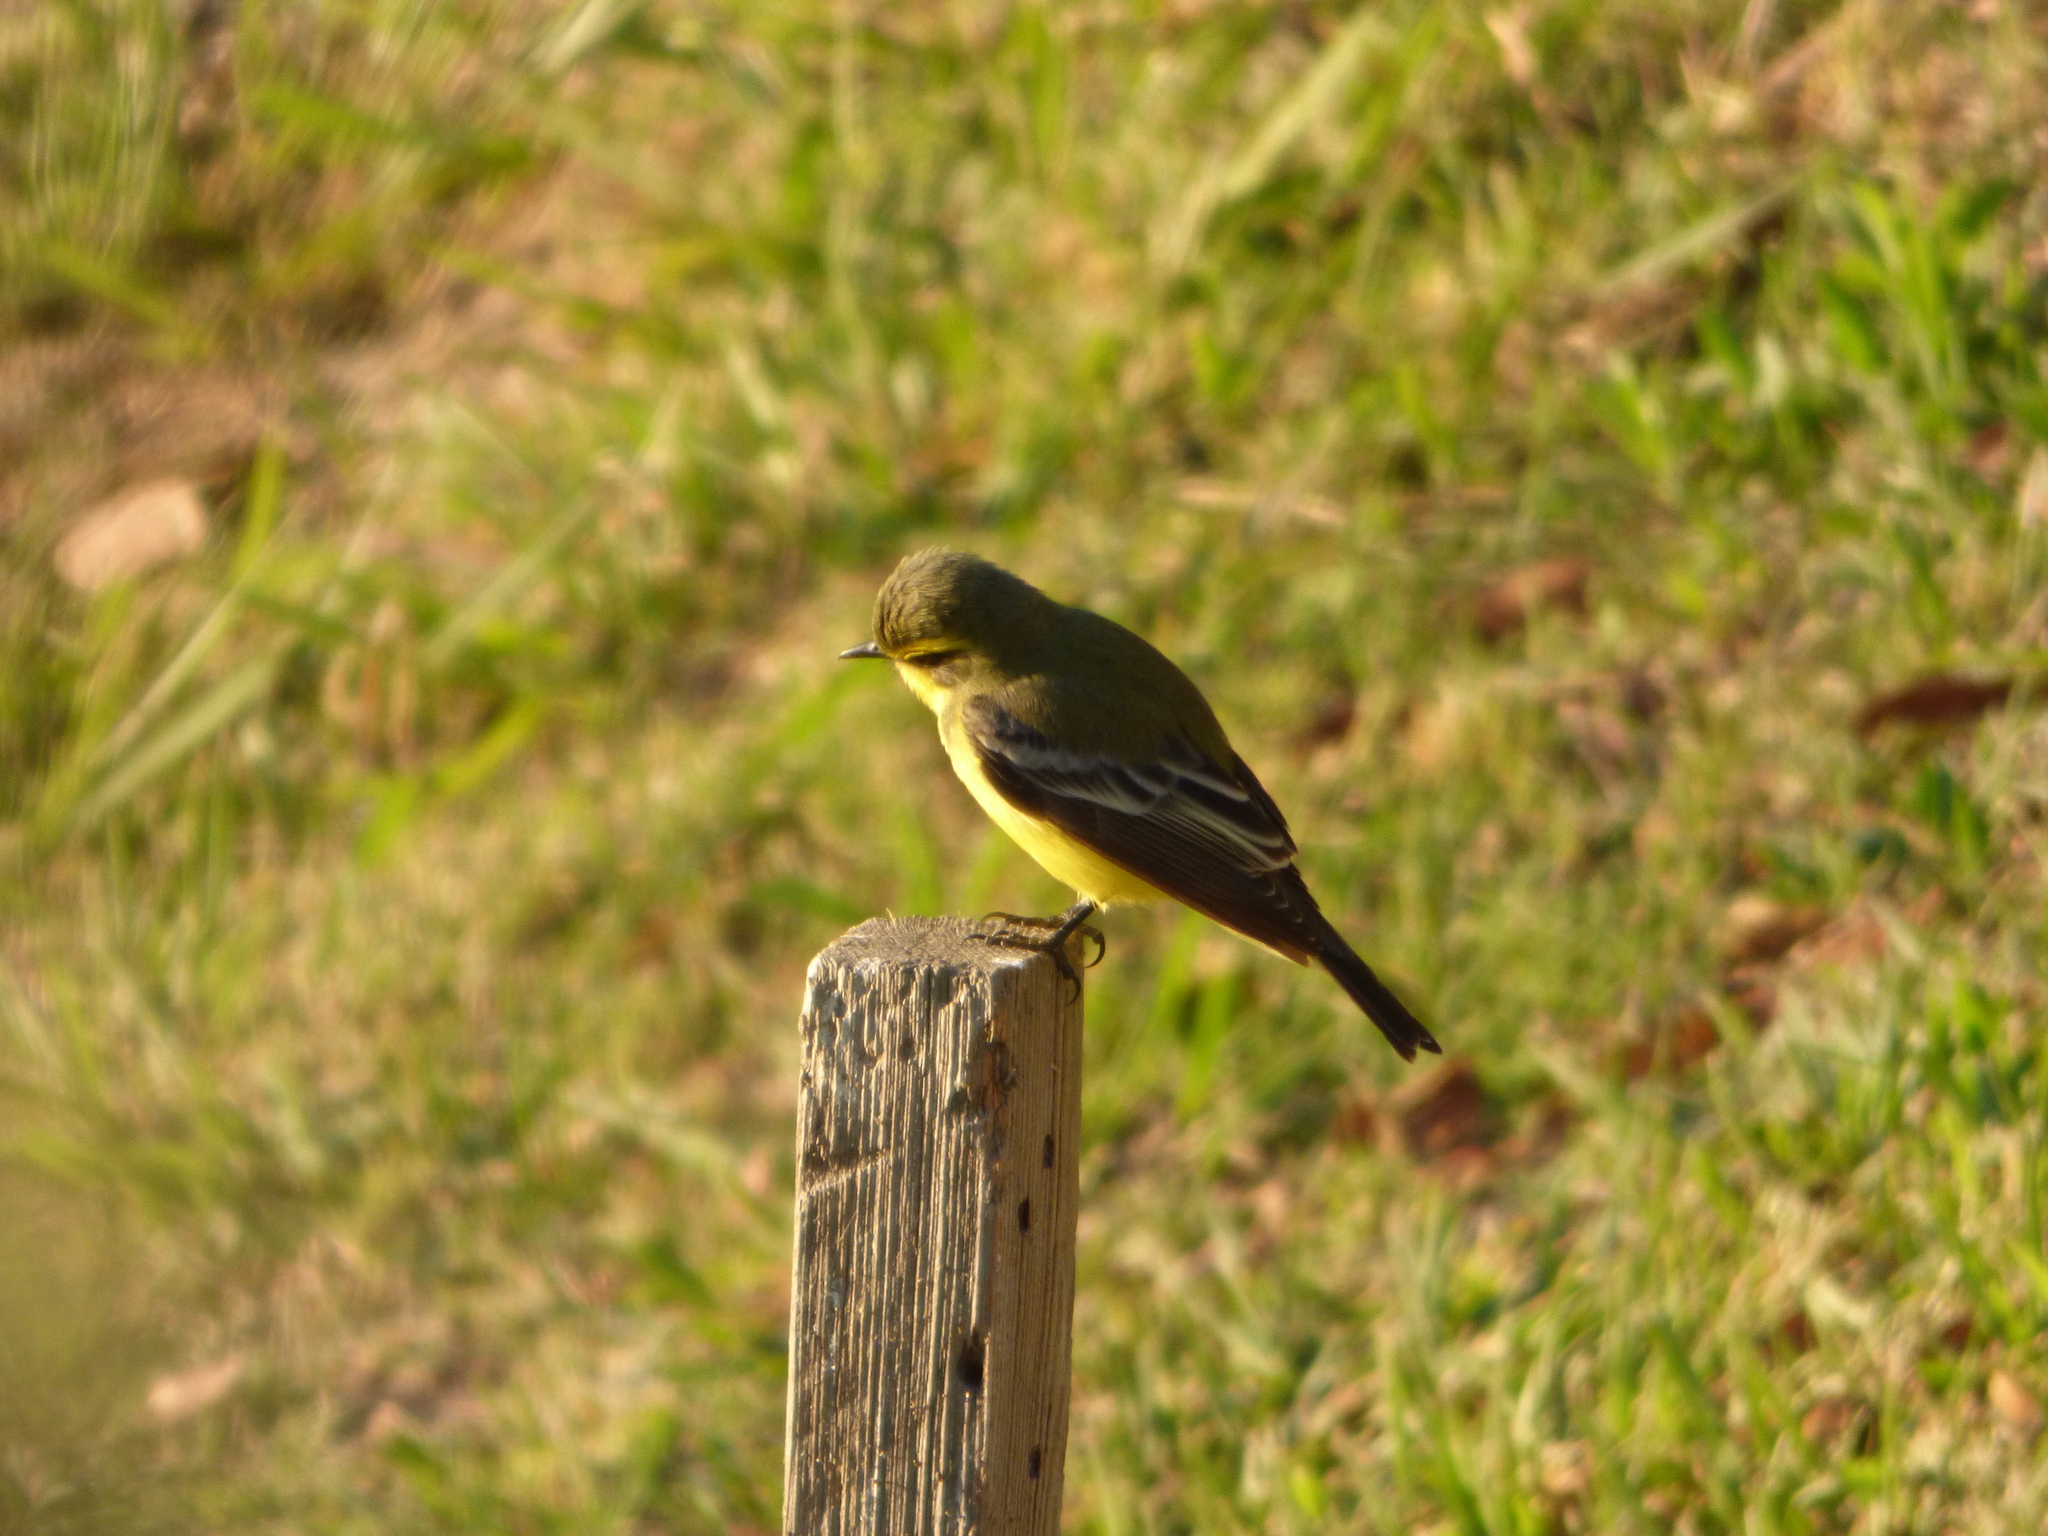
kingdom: Animalia
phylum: Chordata
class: Aves
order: Passeriformes
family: Tyrannidae
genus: Satrapa
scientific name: Satrapa icterophrys
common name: Yellow-browed tyrant
